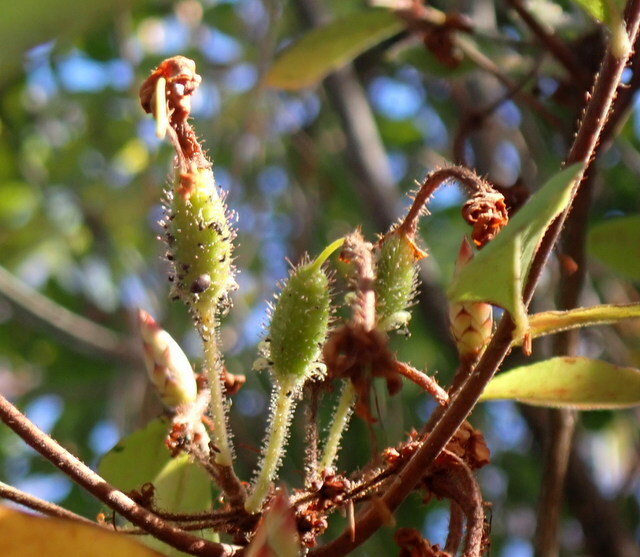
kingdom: Plantae
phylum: Tracheophyta
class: Magnoliopsida
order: Ericales
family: Ericaceae
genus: Rhododendron
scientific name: Rhododendron serrulatum
